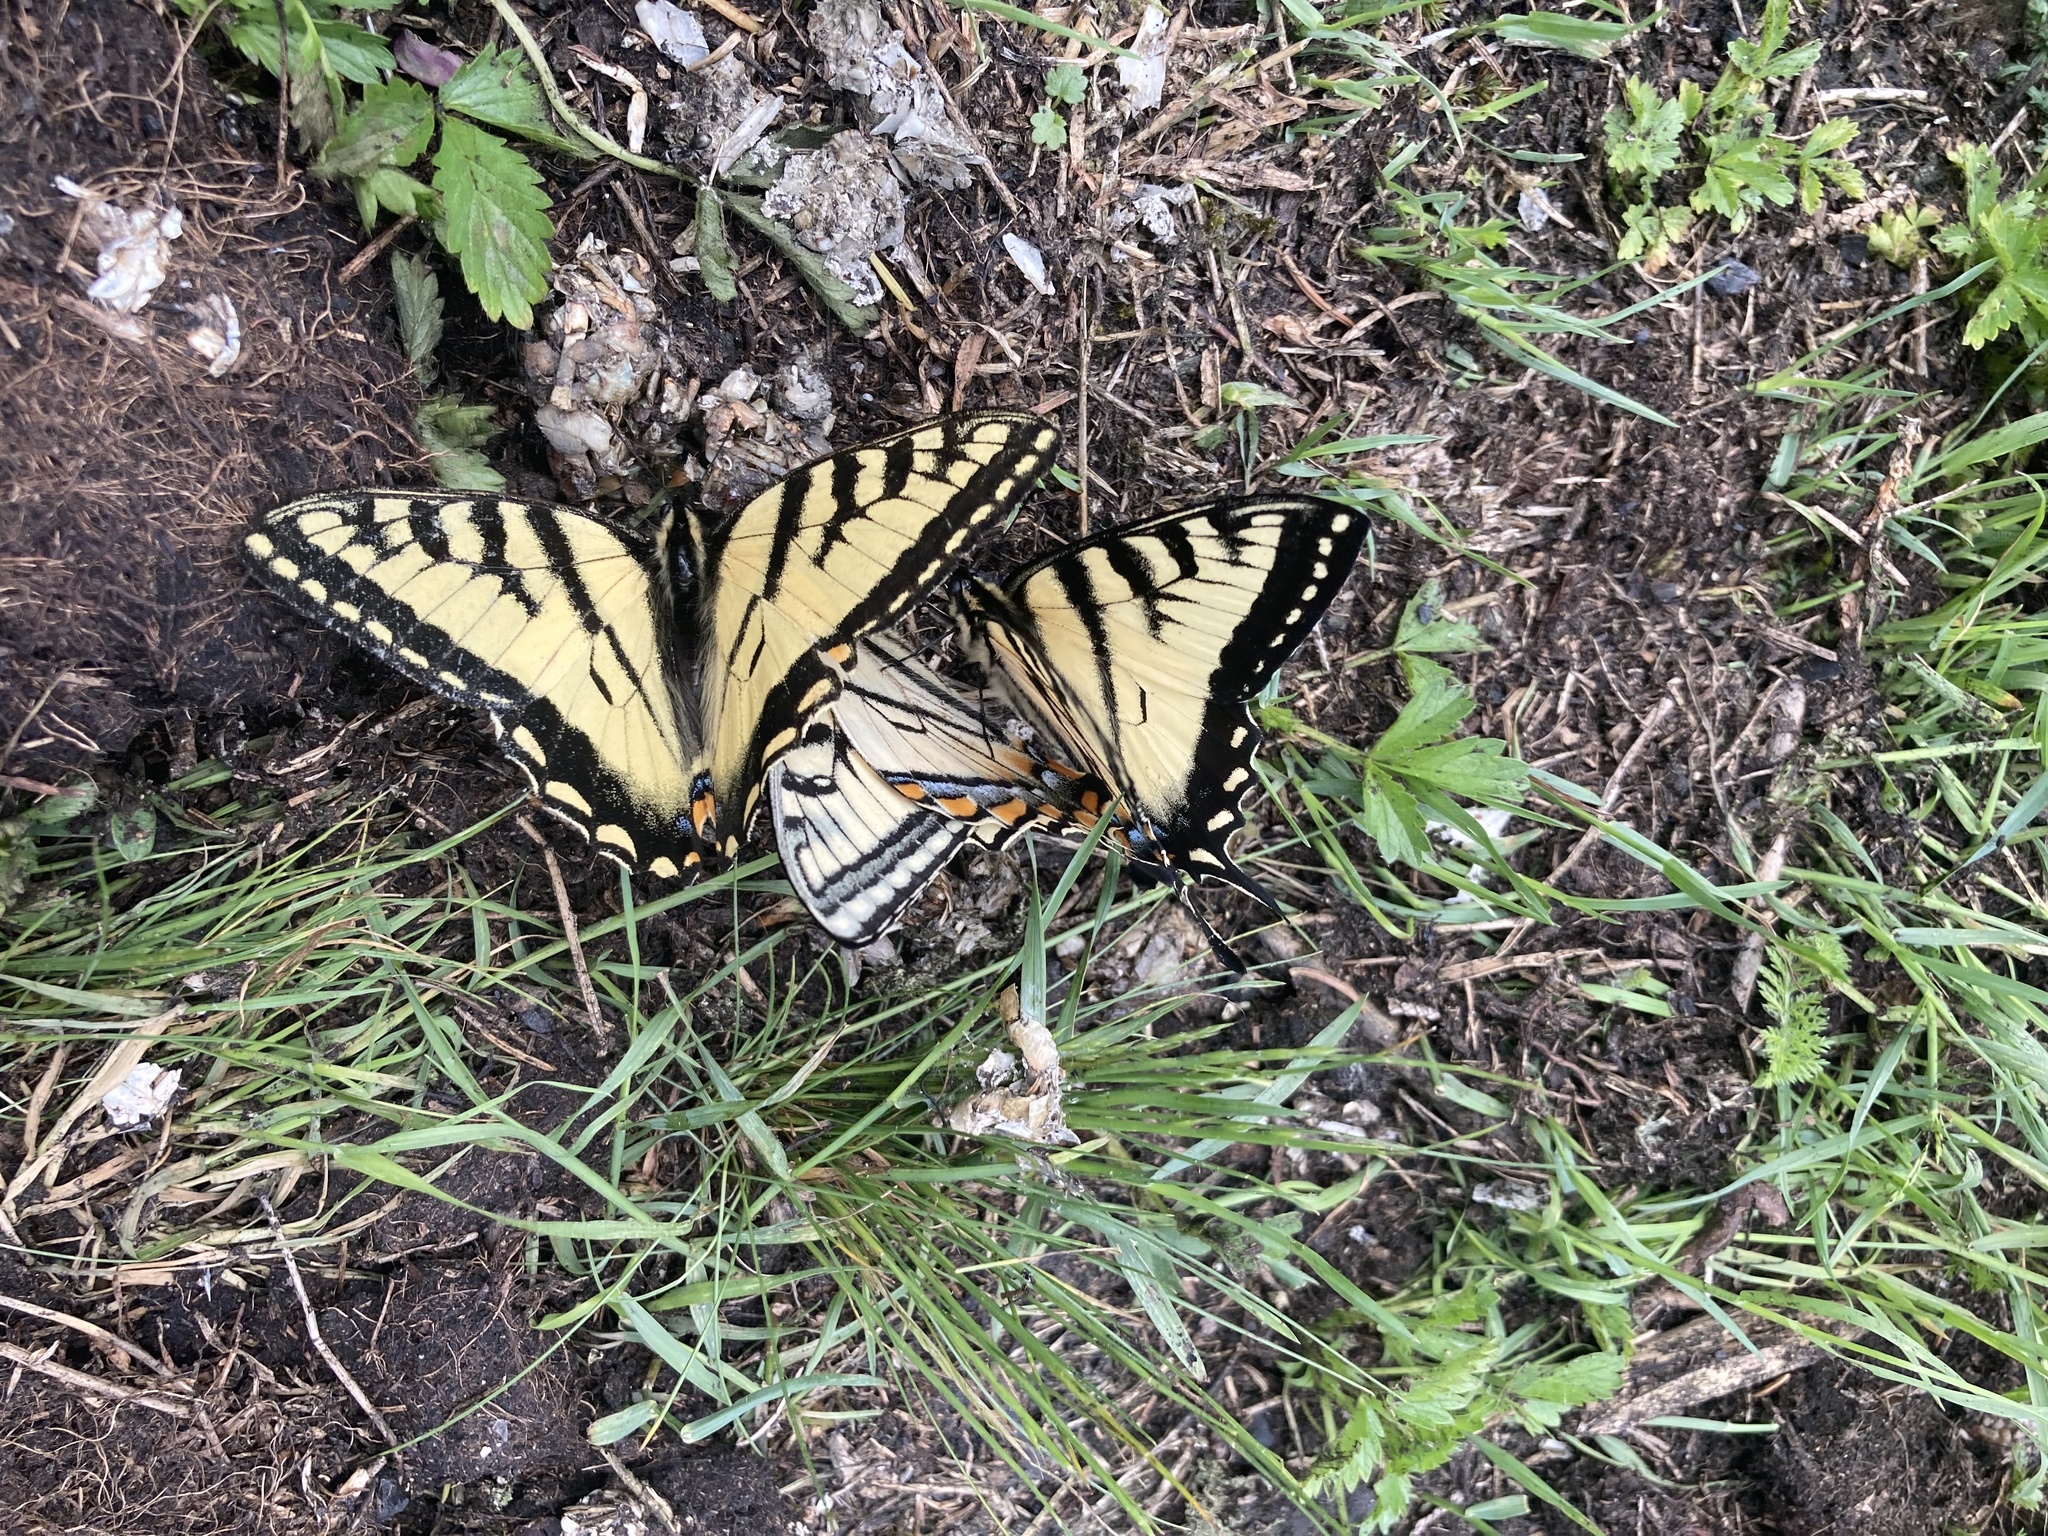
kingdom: Animalia
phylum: Arthropoda
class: Insecta
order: Lepidoptera
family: Papilionidae
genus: Papilio
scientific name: Papilio canadensis
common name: Canadian tiger swallowtail
